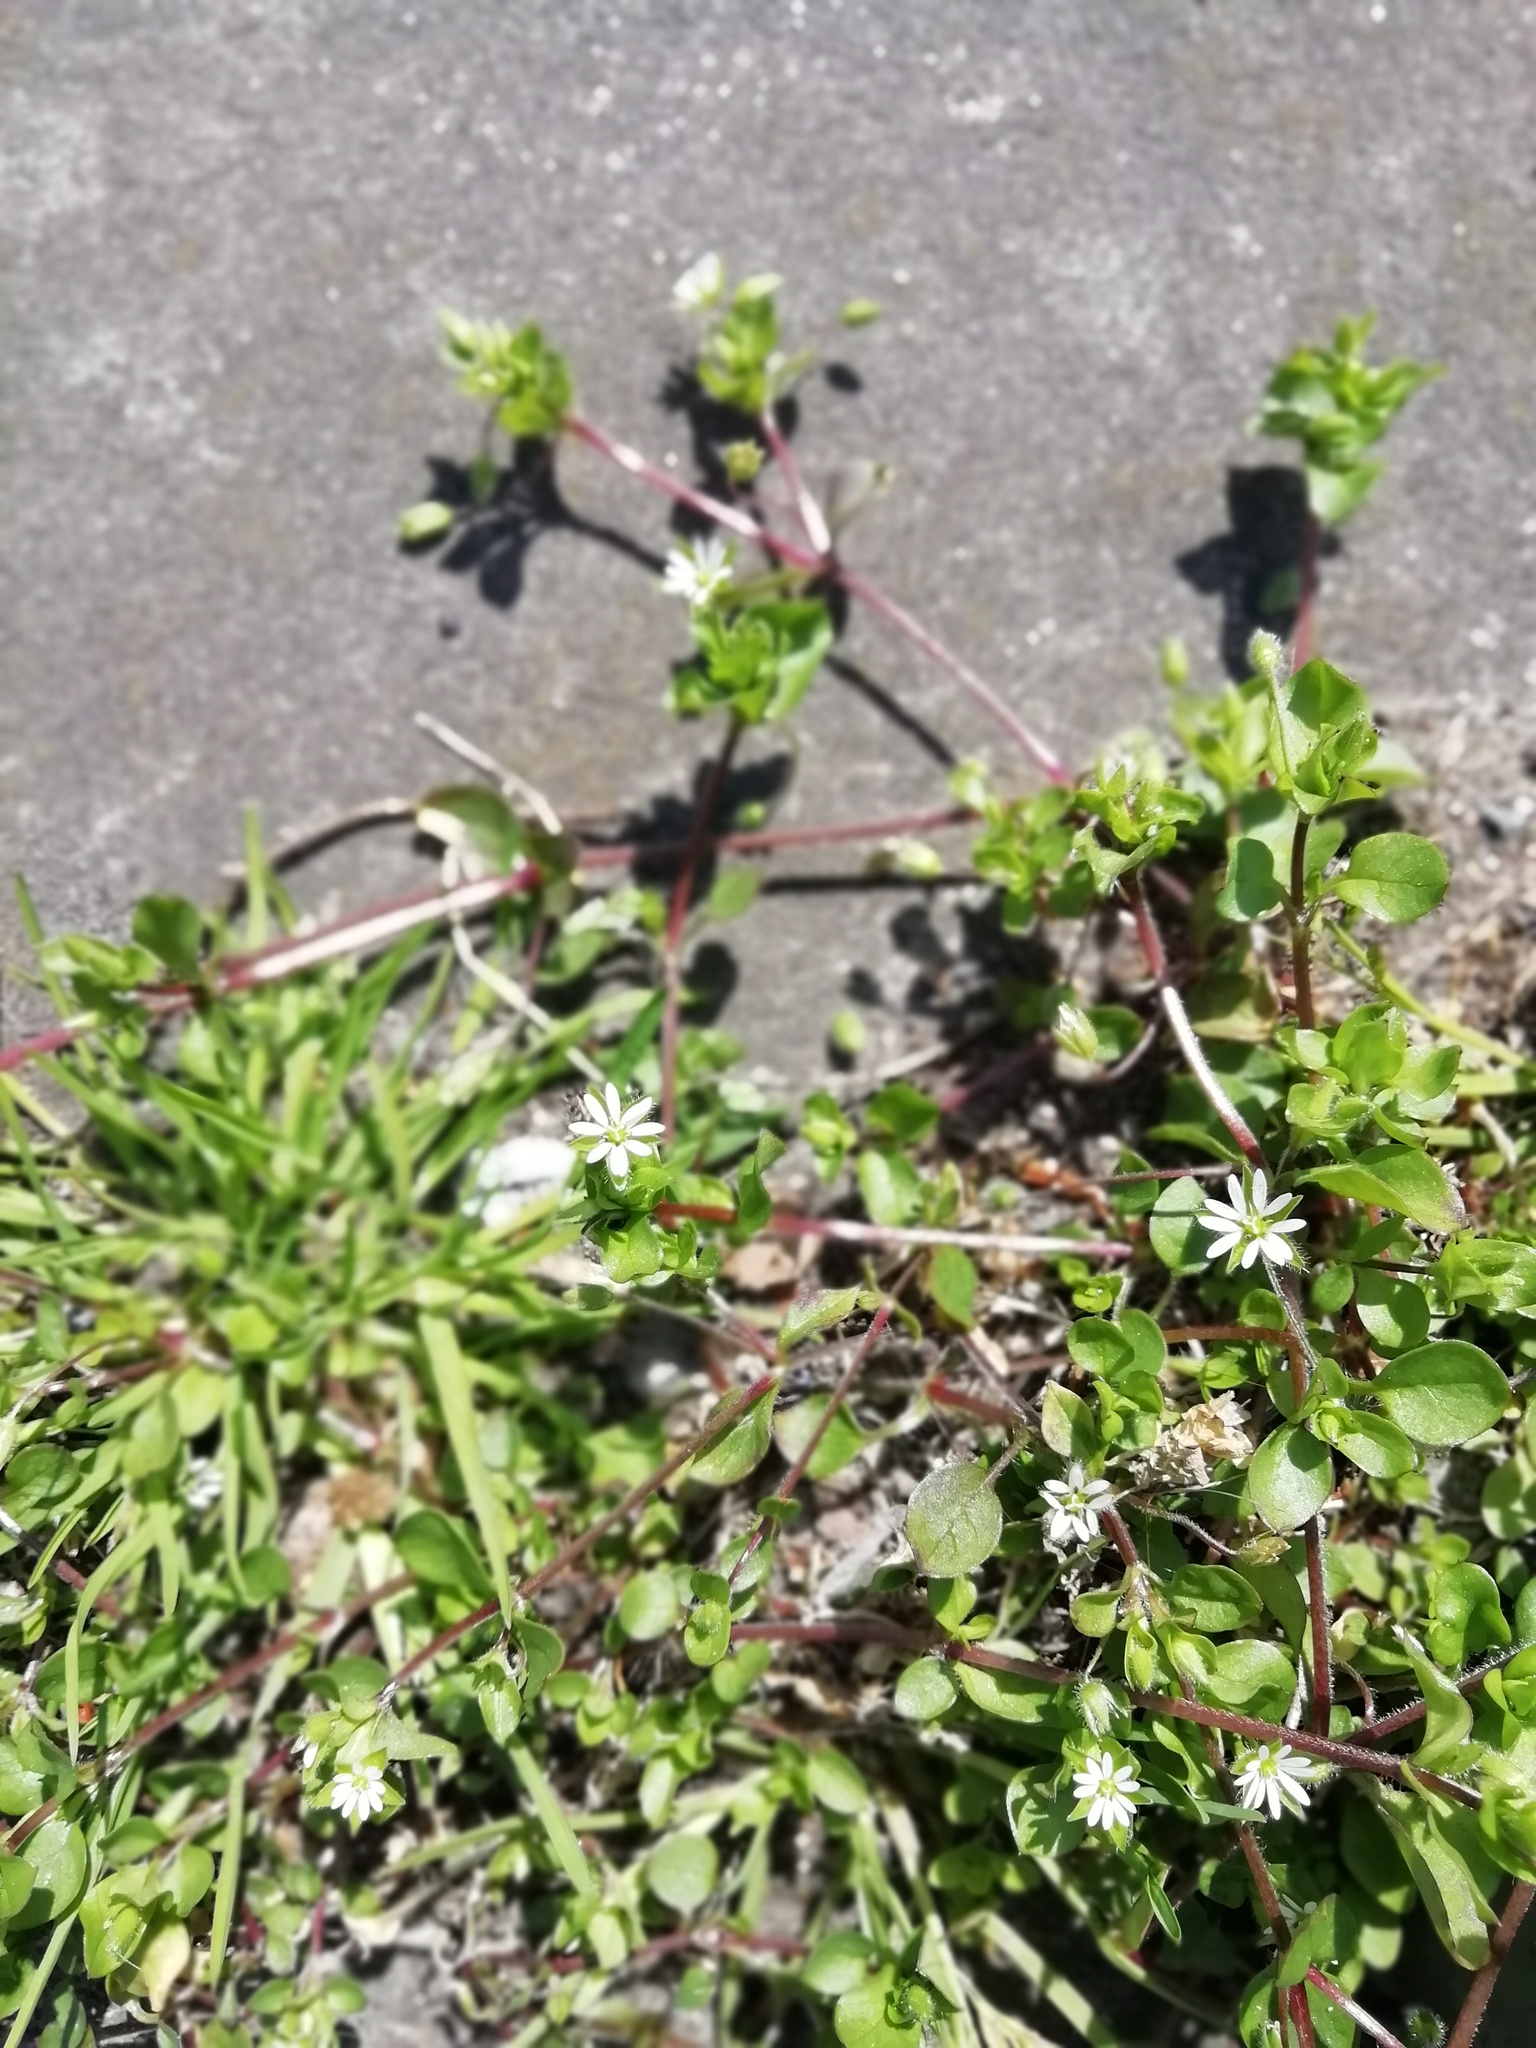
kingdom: Plantae
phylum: Tracheophyta
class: Magnoliopsida
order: Caryophyllales
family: Caryophyllaceae
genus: Stellaria
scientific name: Stellaria media
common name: Common chickweed
